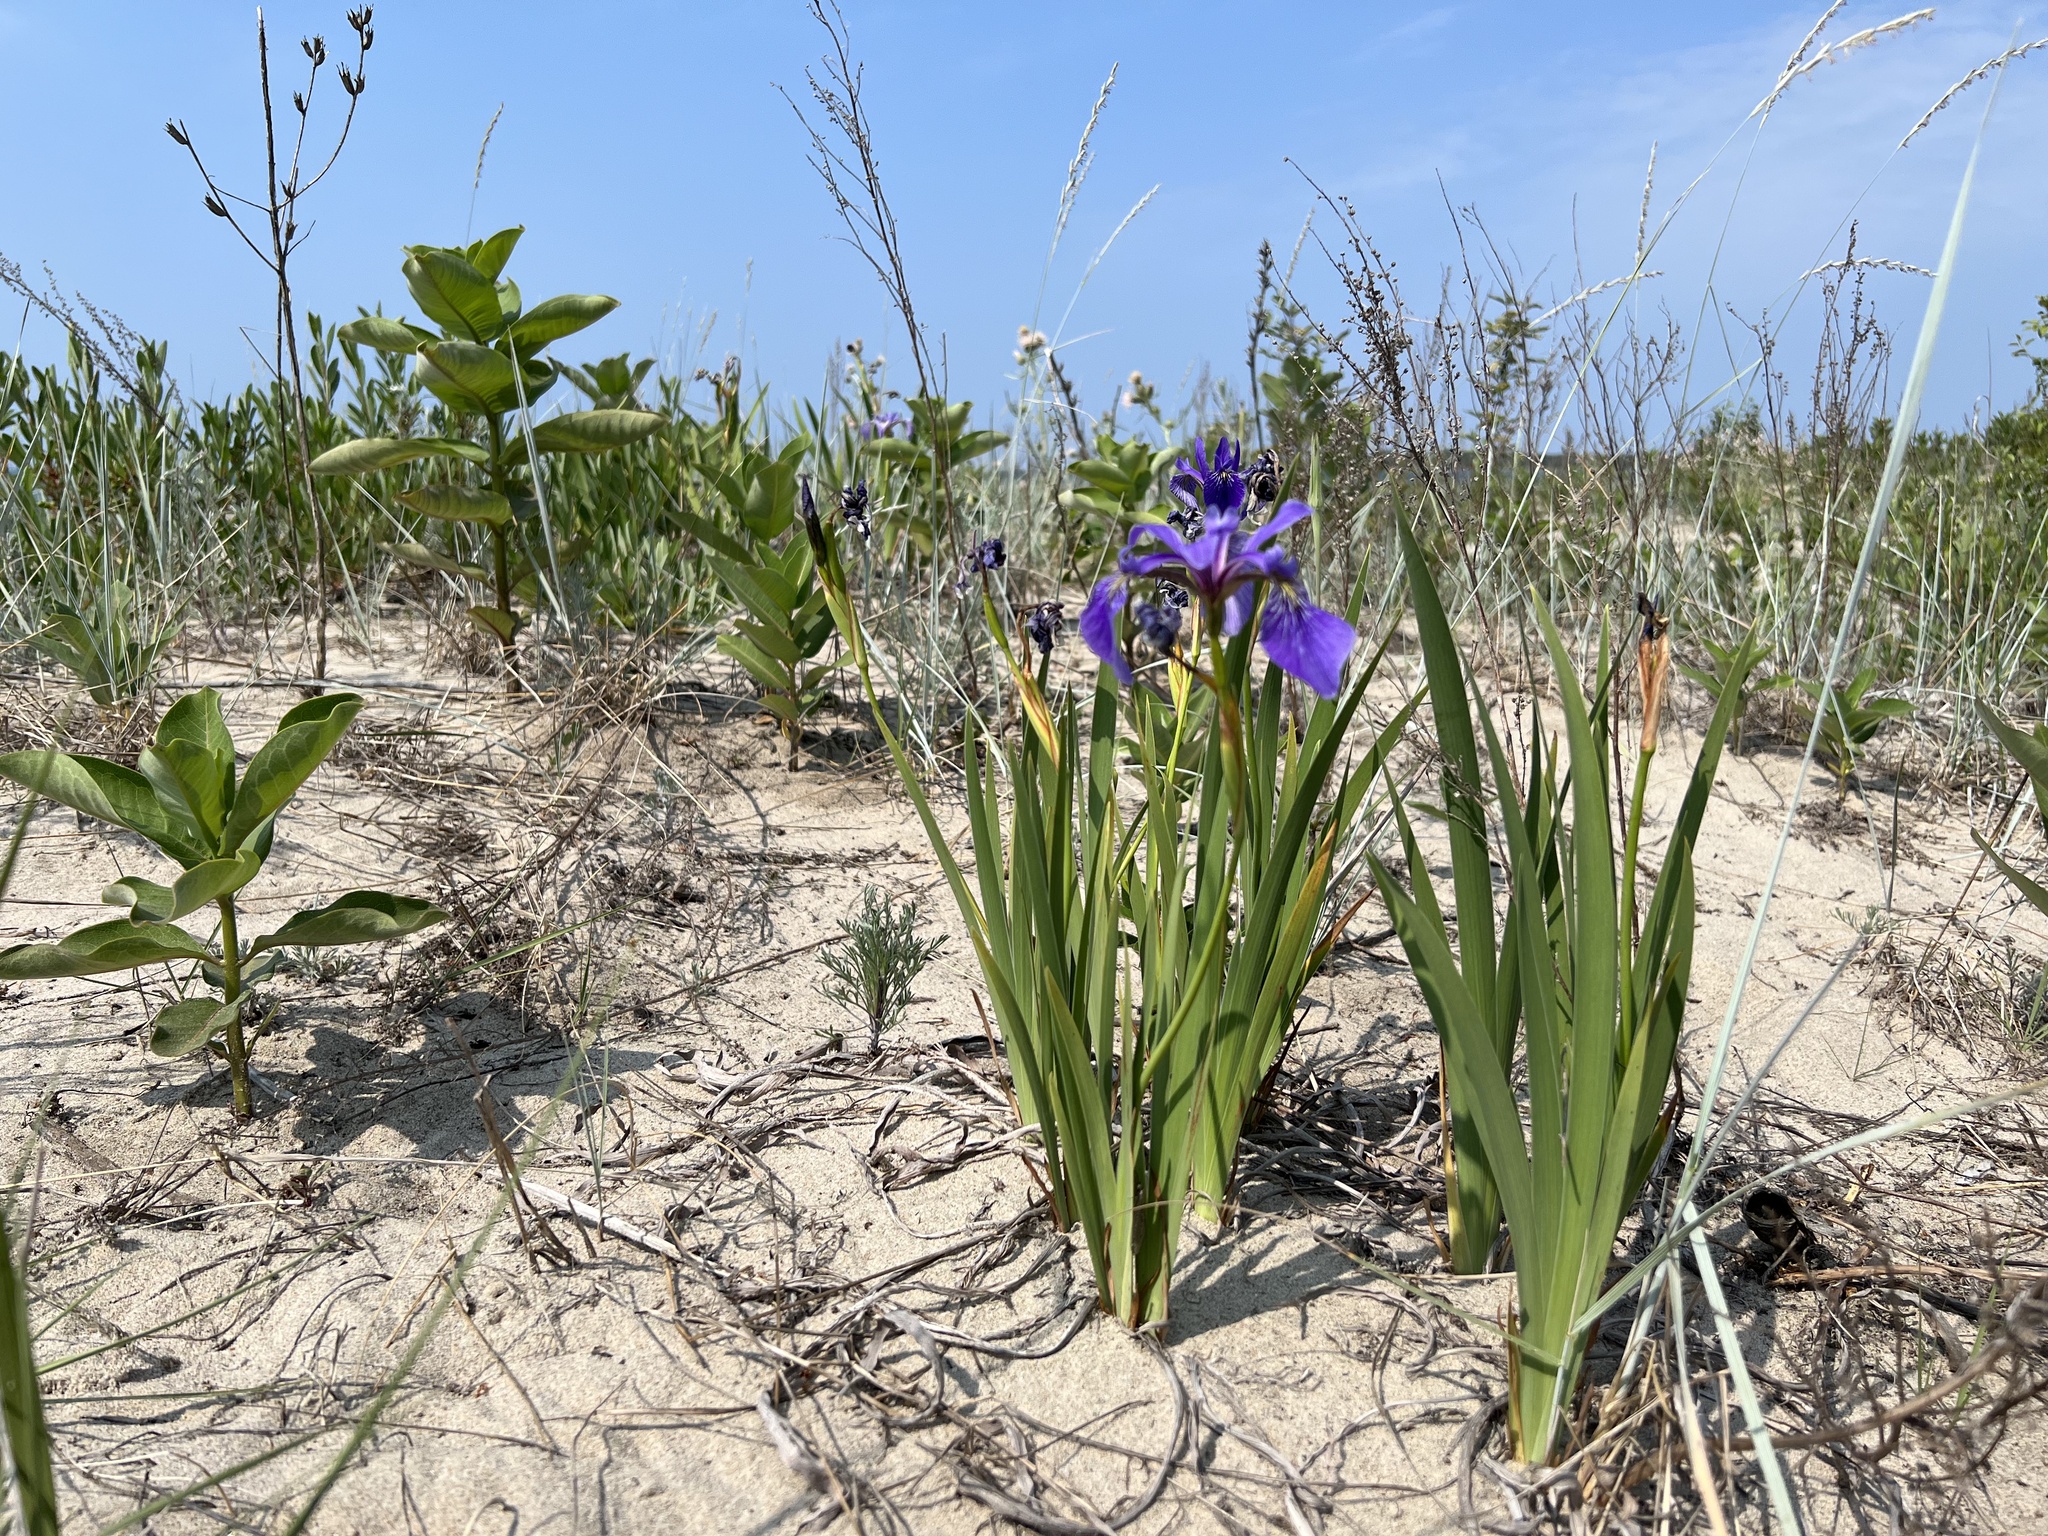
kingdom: Plantae
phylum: Tracheophyta
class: Liliopsida
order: Asparagales
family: Iridaceae
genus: Iris
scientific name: Iris versicolor
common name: Purple iris
